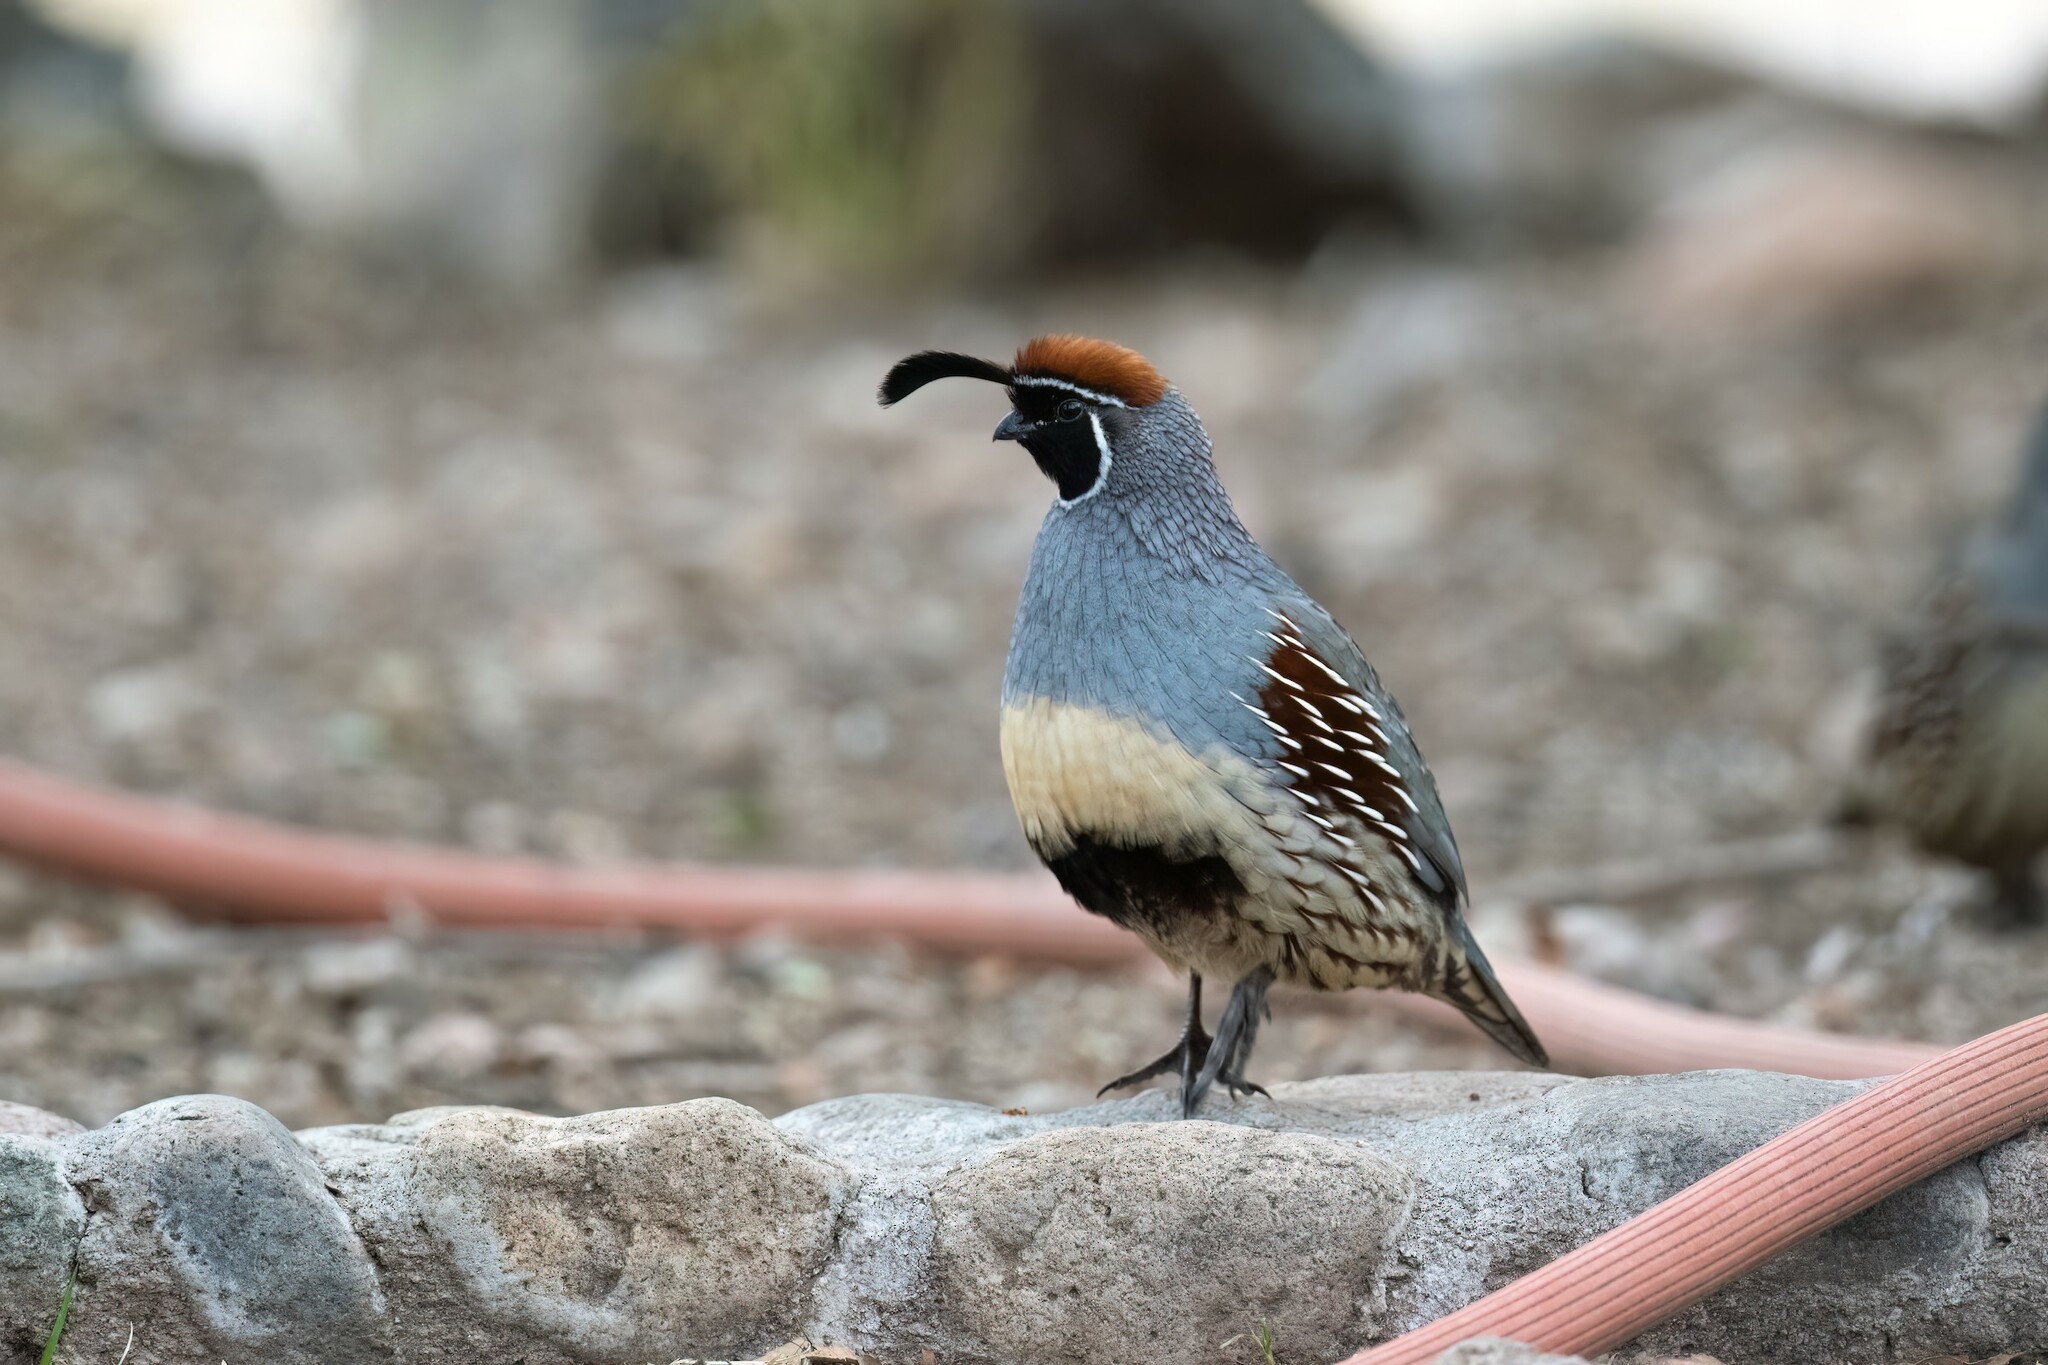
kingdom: Animalia
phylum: Chordata
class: Aves
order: Galliformes
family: Odontophoridae
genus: Callipepla
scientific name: Callipepla gambelii
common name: Gambel's quail
